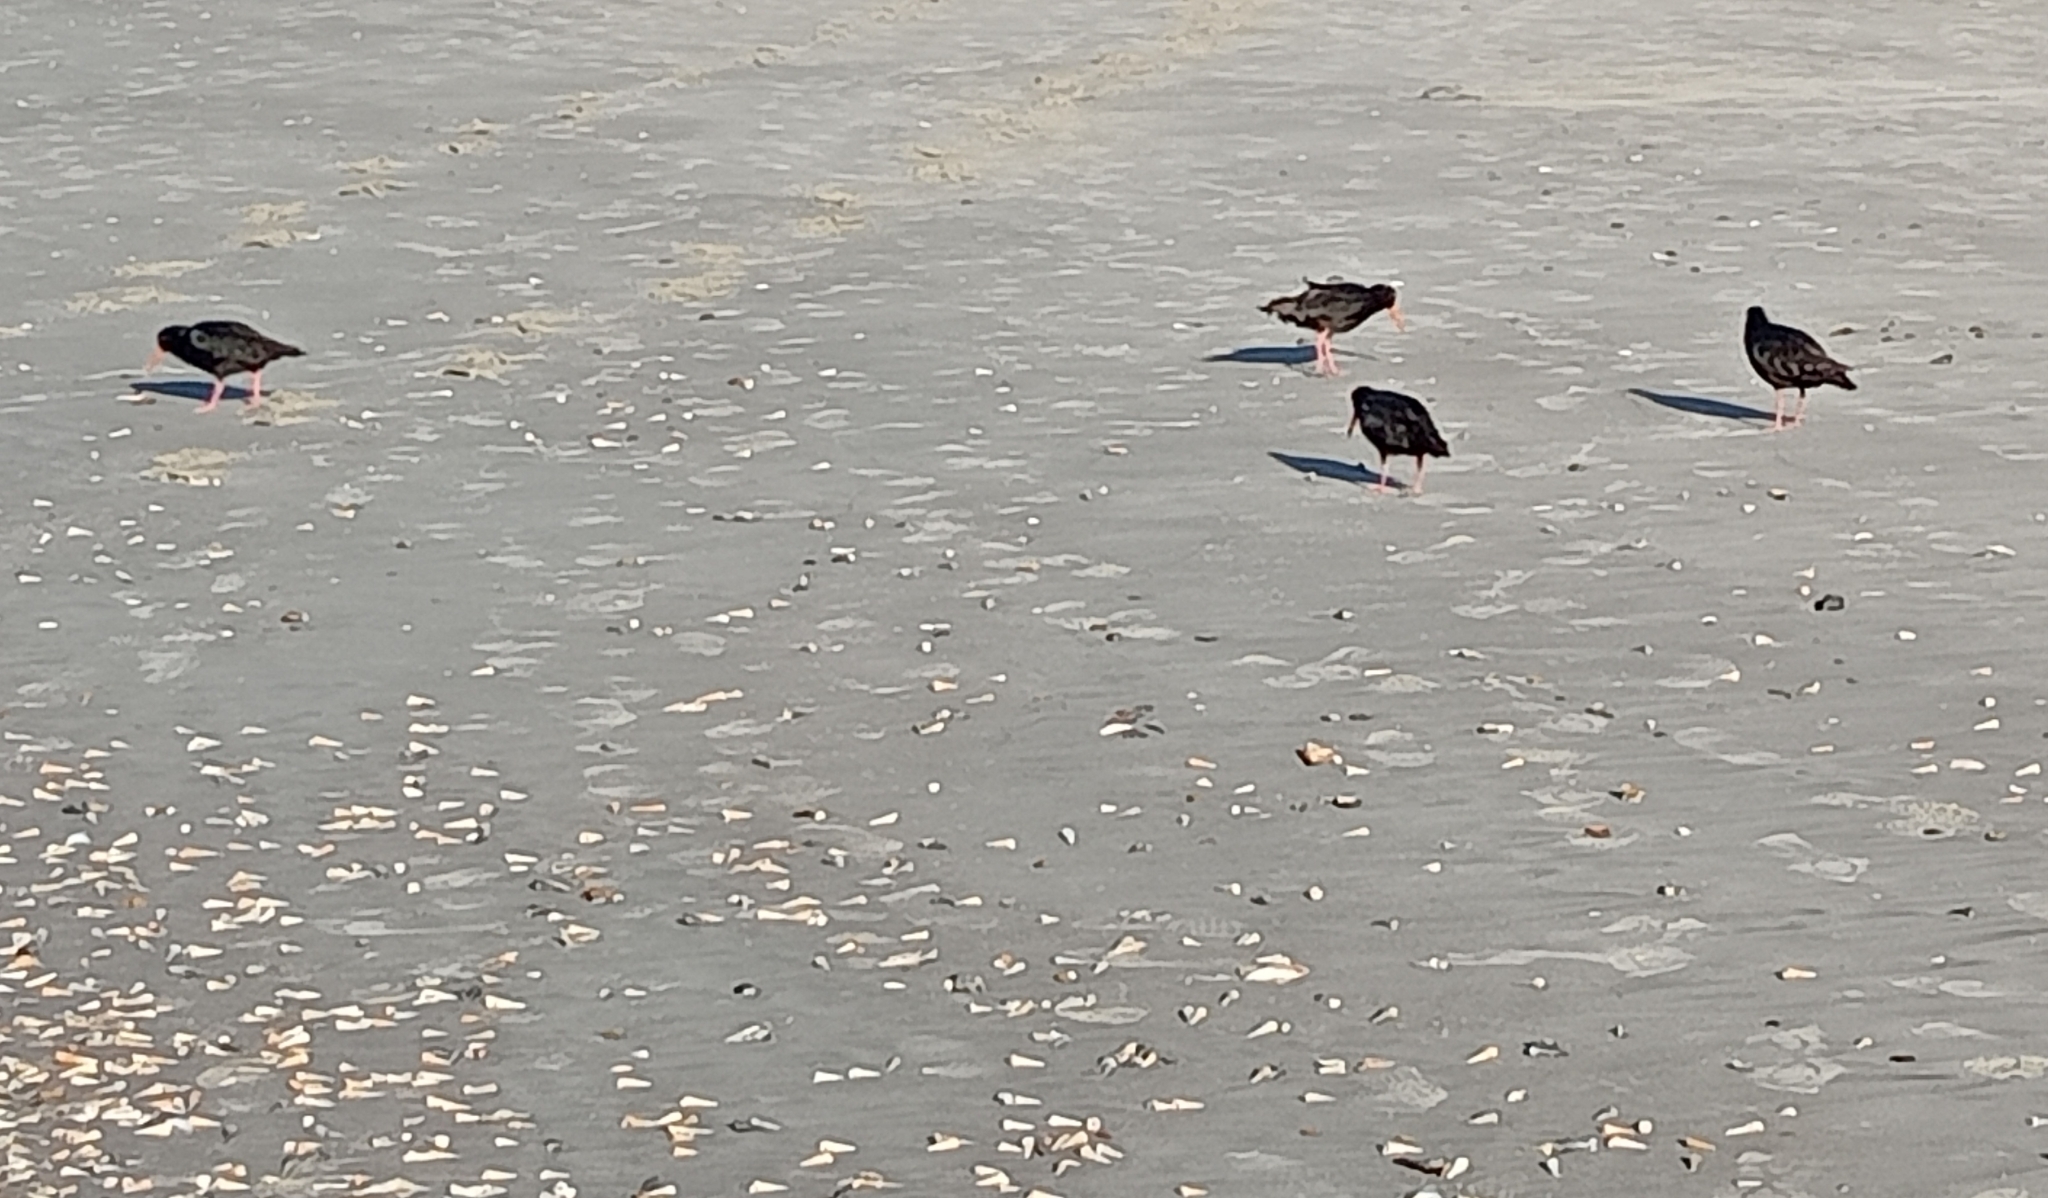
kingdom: Animalia
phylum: Chordata
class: Aves
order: Charadriiformes
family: Haematopodidae
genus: Haematopus
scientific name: Haematopus unicolor
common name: Variable oystercatcher
